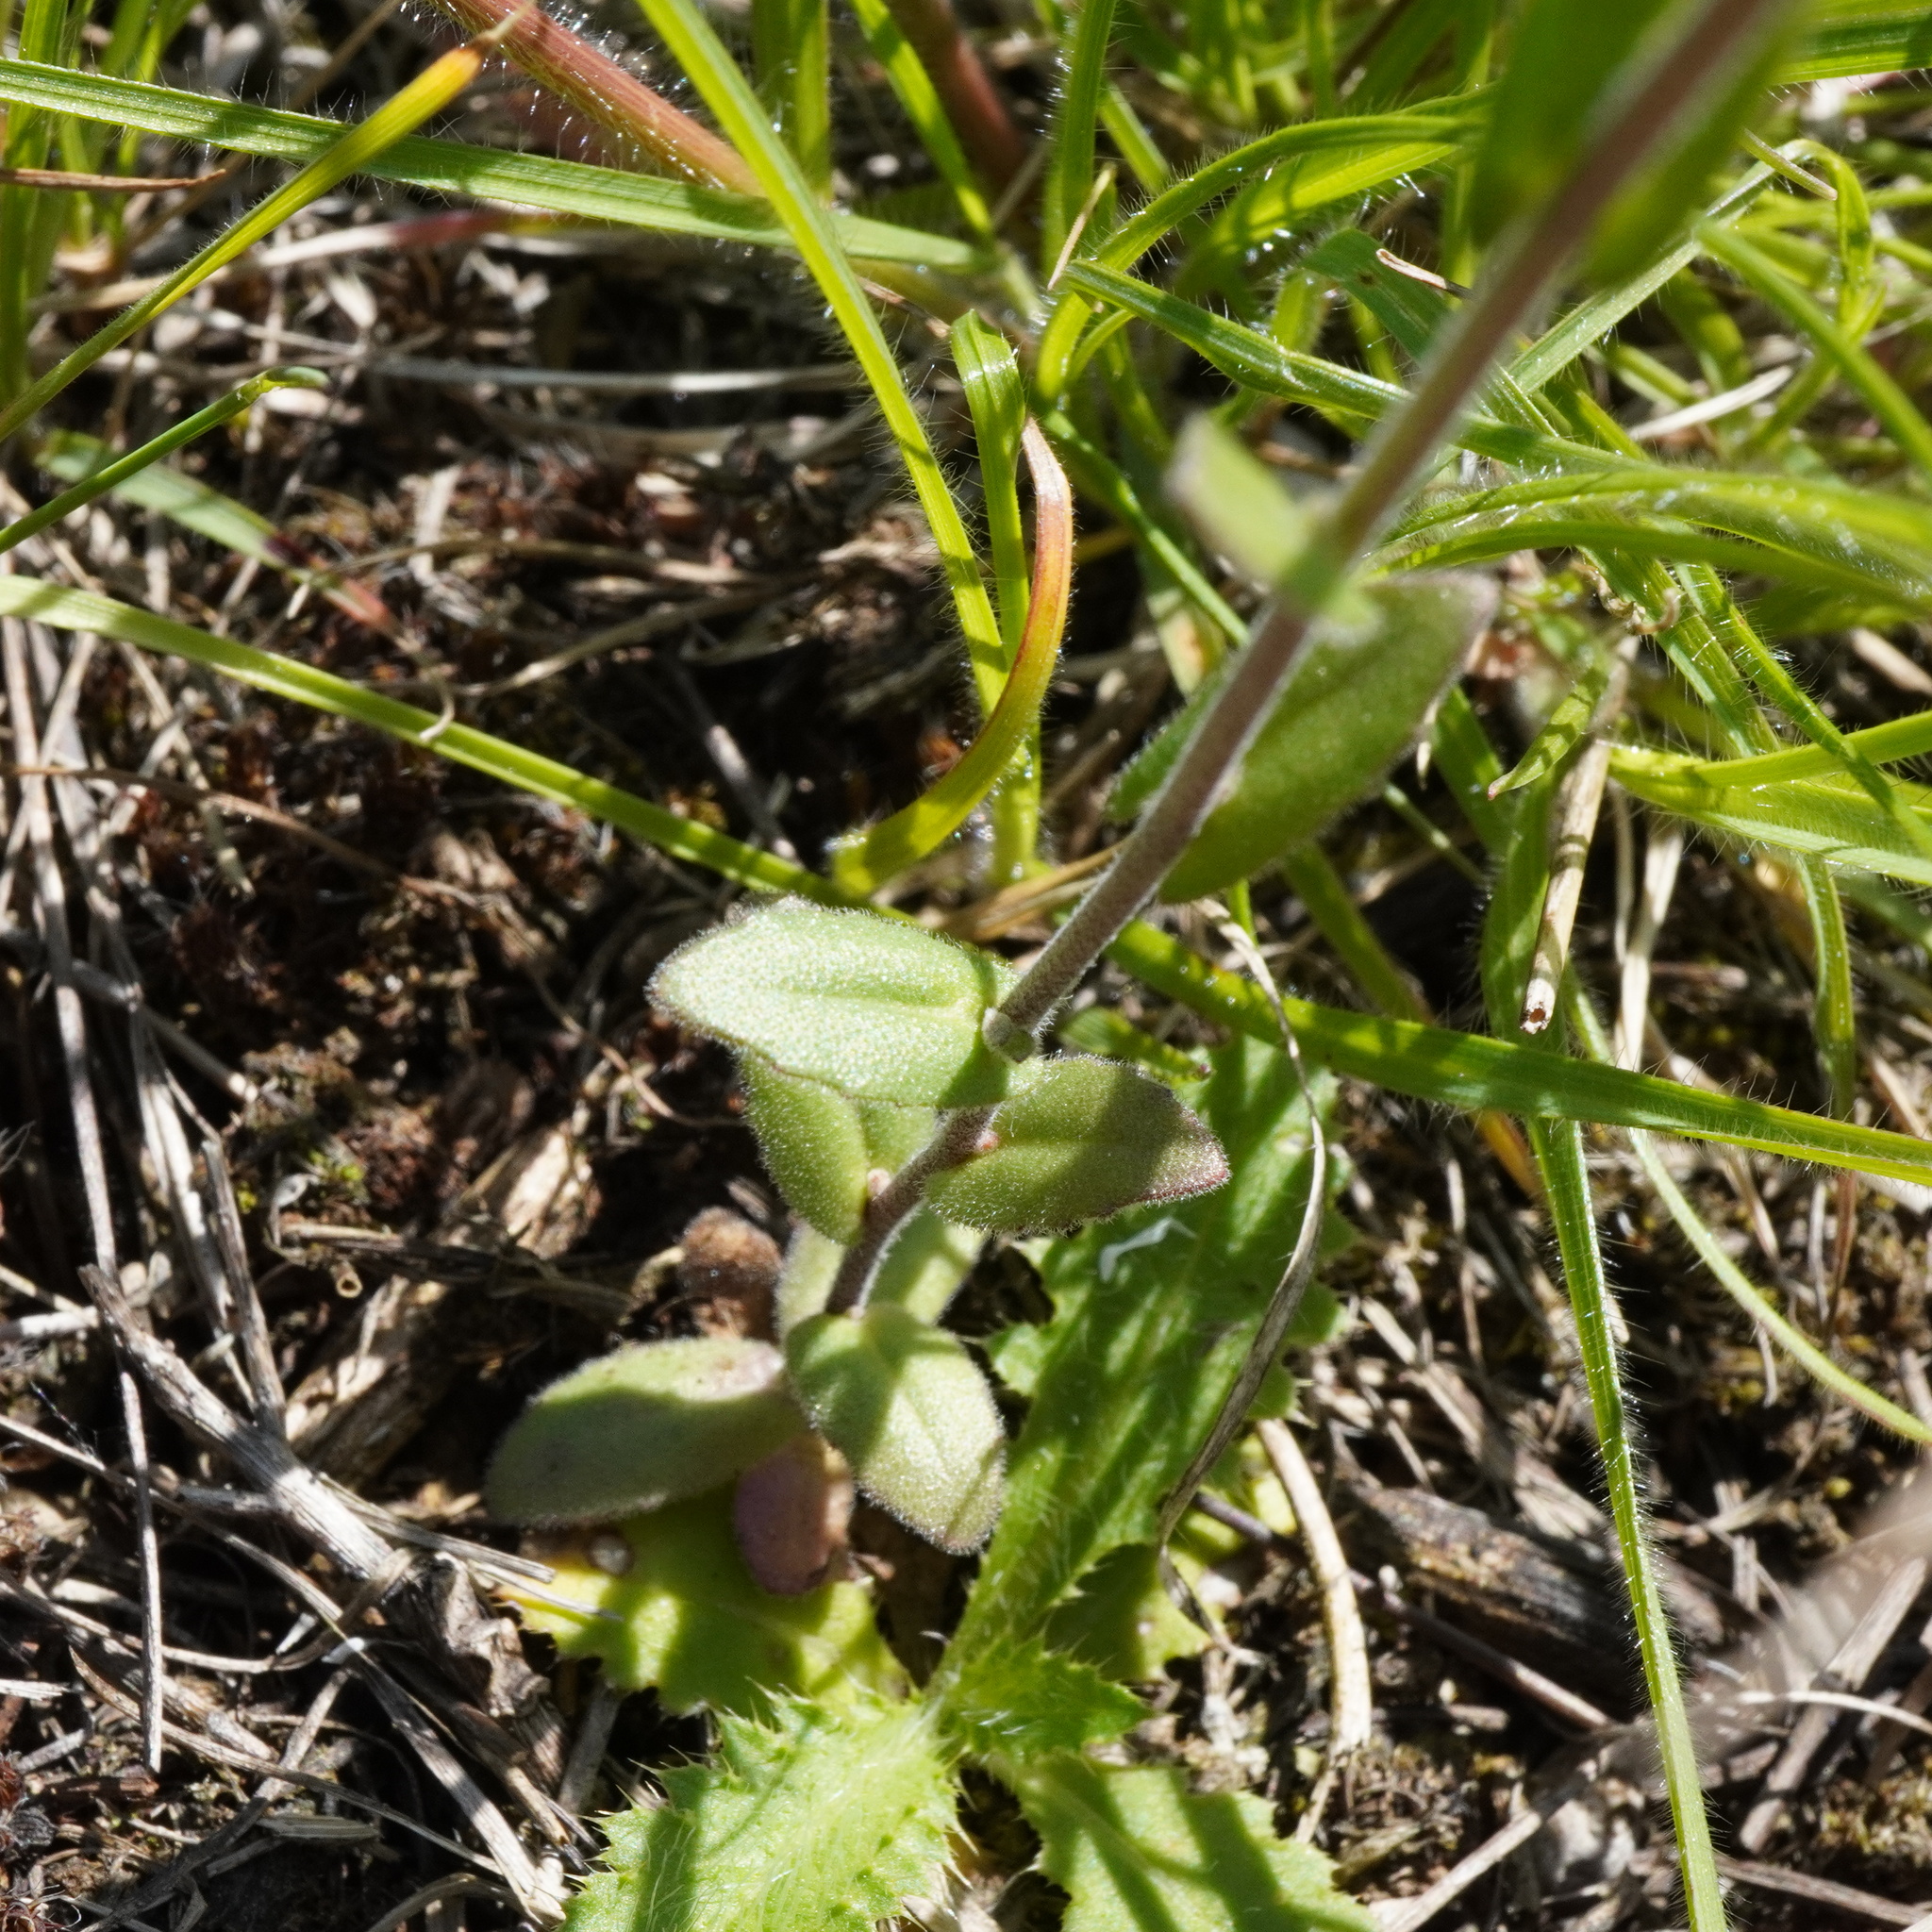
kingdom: Plantae
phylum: Tracheophyta
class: Magnoliopsida
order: Brassicales
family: Brassicaceae
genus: Arabis
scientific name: Arabis auriculata
